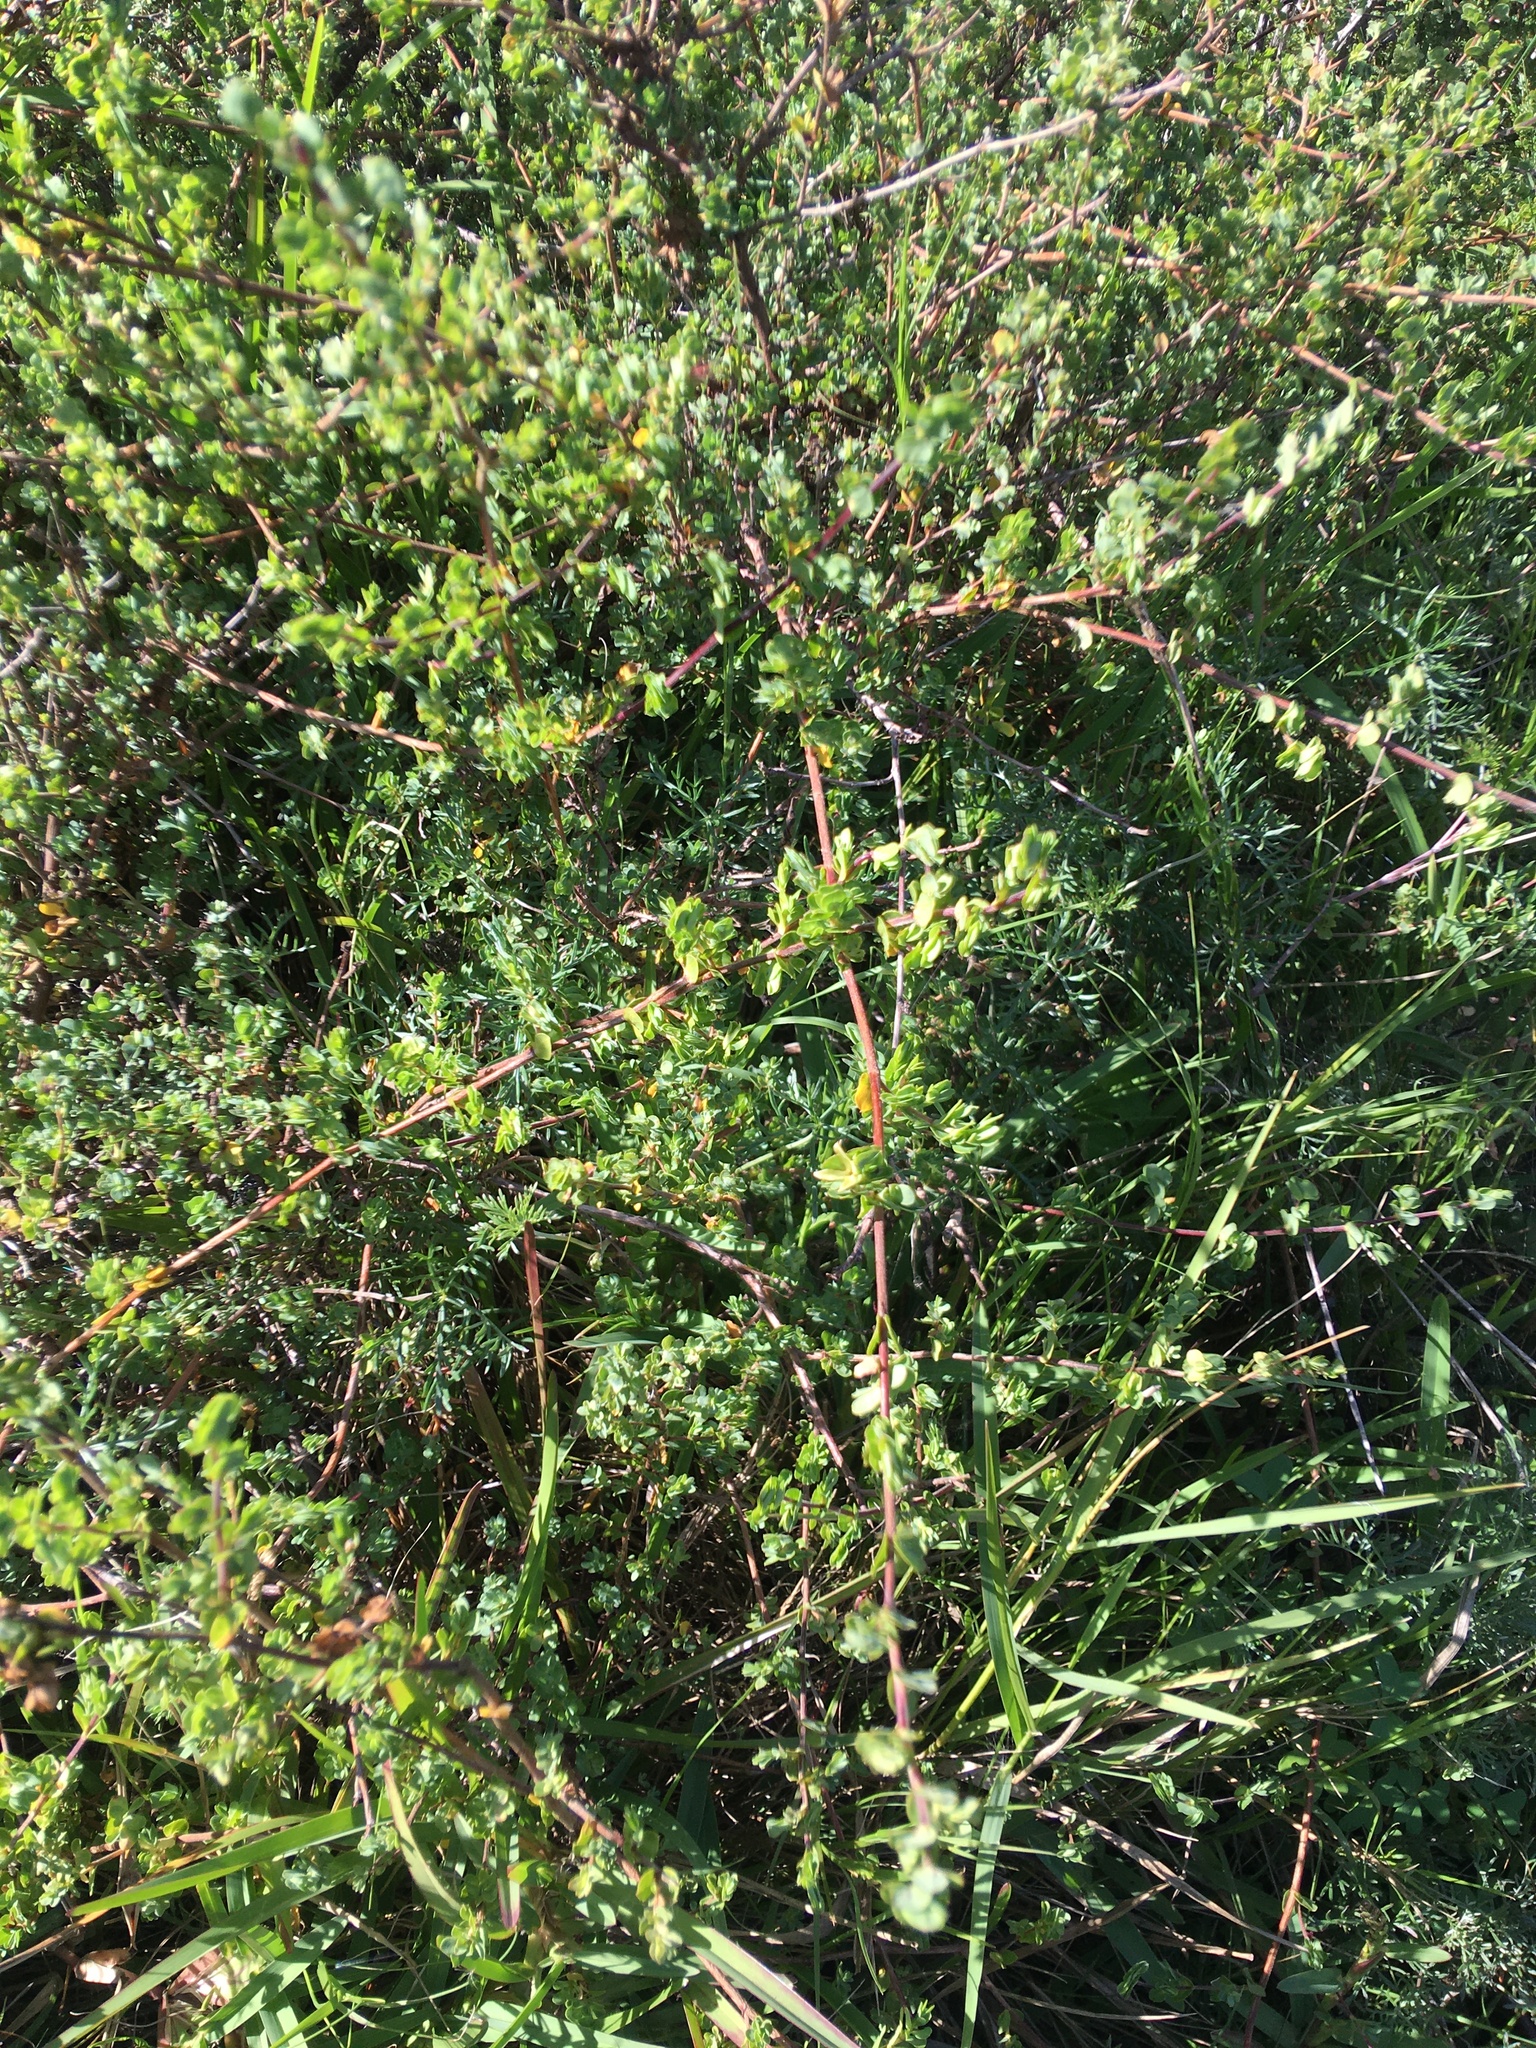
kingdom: Plantae
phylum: Tracheophyta
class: Magnoliopsida
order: Rosales
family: Rosaceae
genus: Cliffortia
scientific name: Cliffortia obcordata
